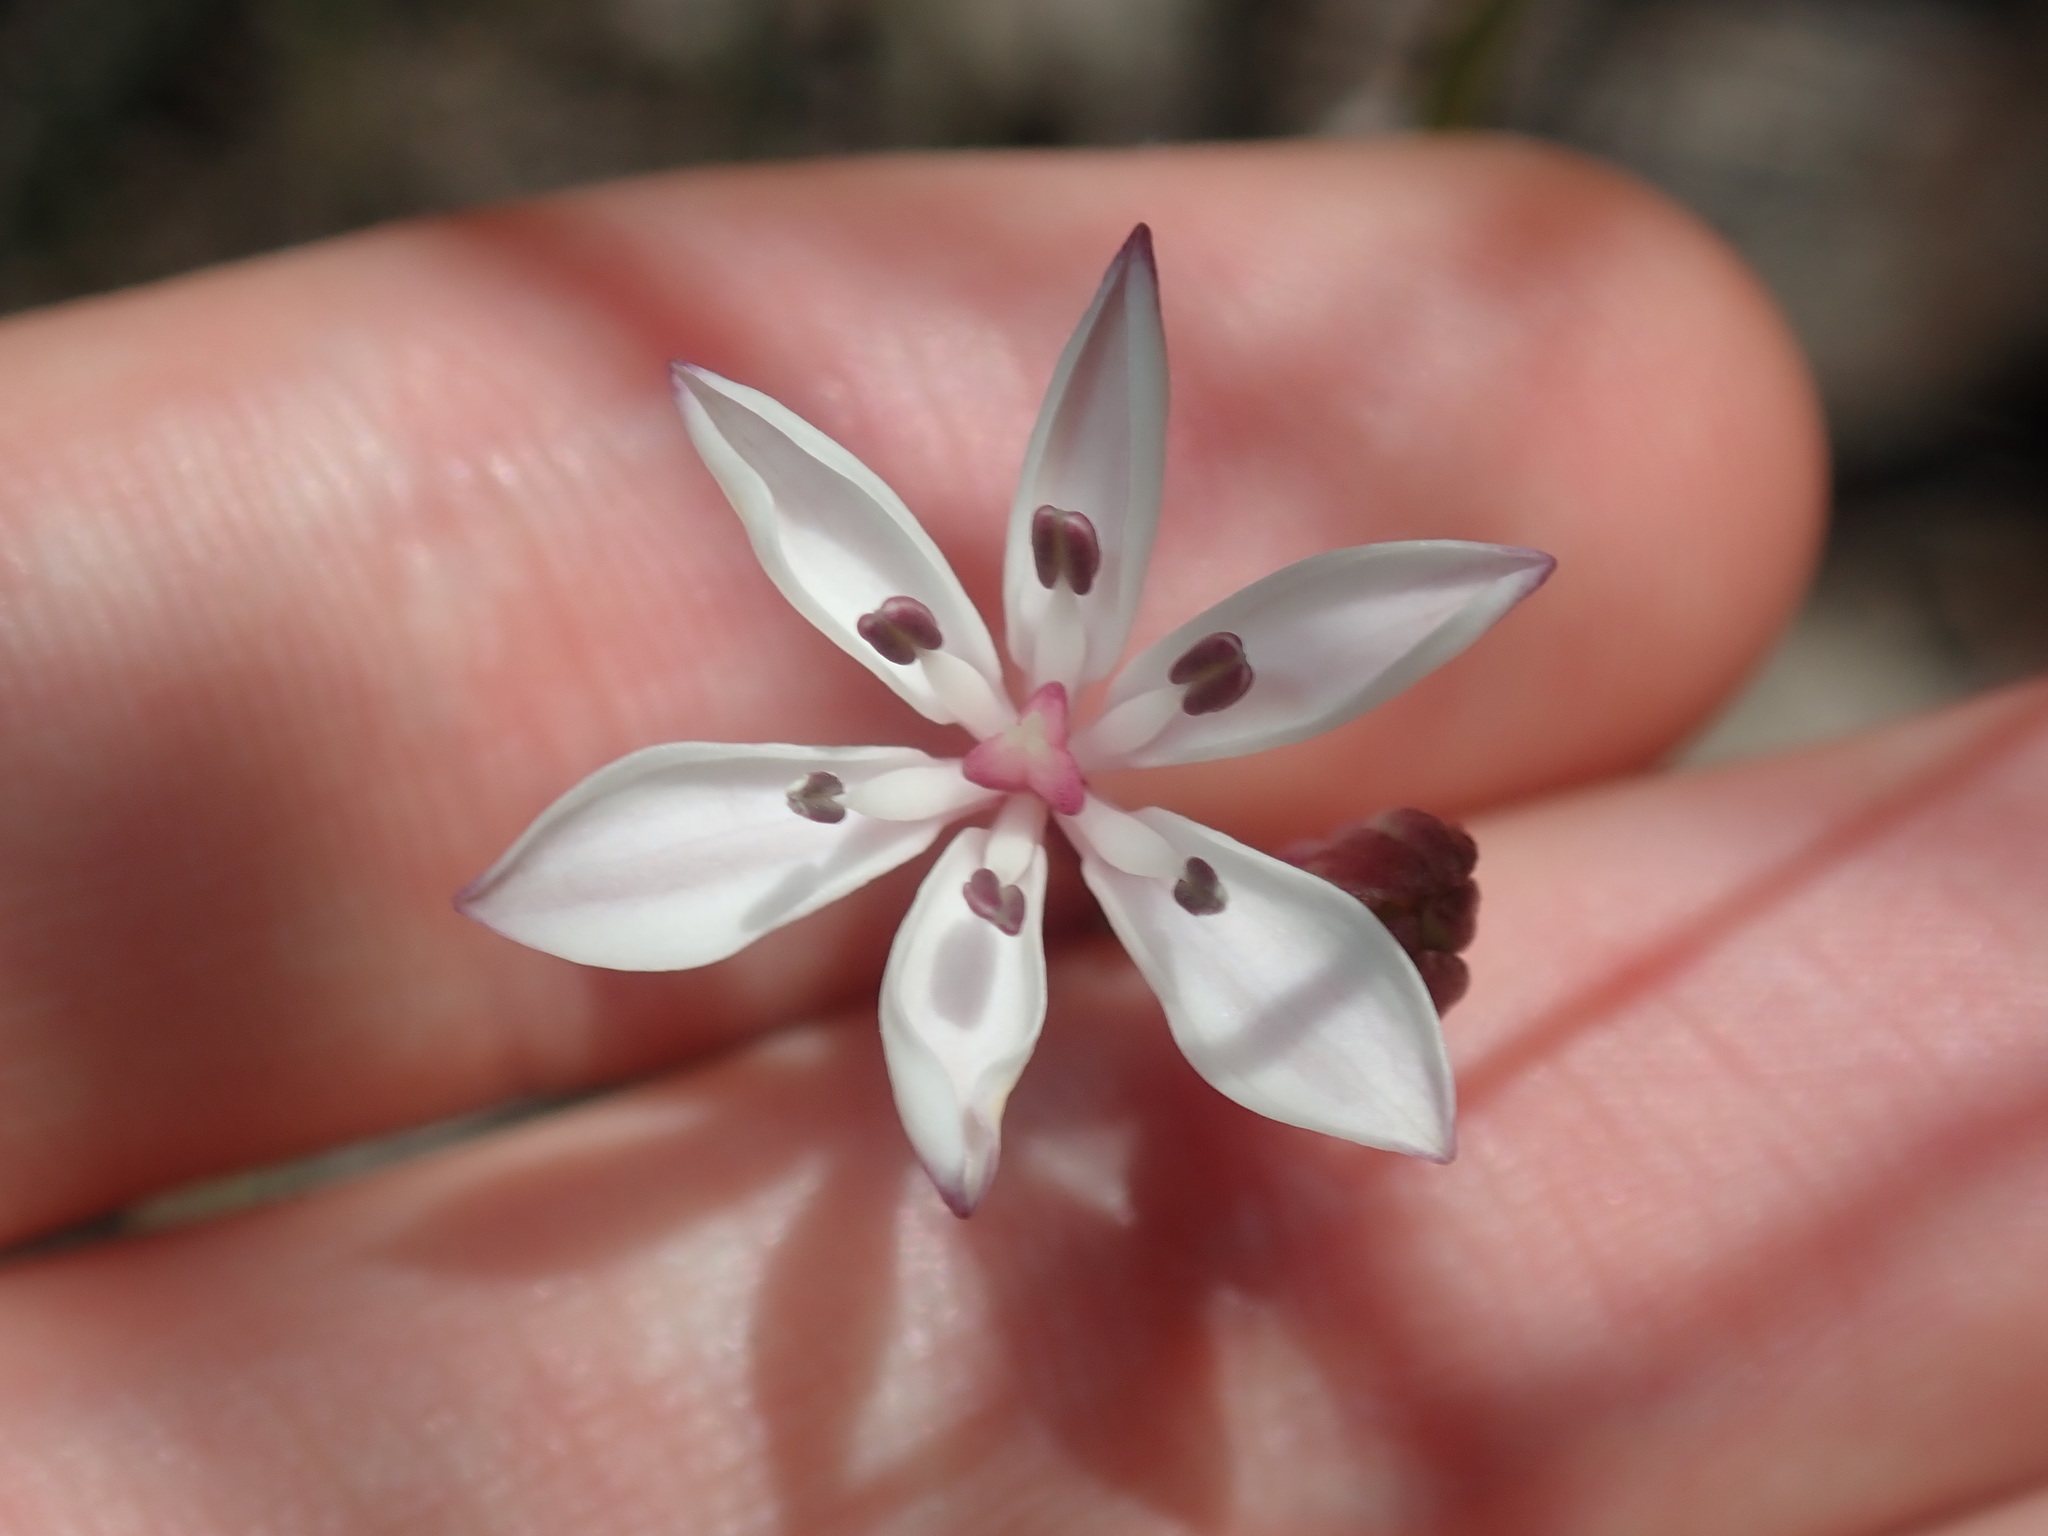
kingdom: Plantae
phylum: Tracheophyta
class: Liliopsida
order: Liliales
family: Colchicaceae
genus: Burchardia
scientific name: Burchardia umbellata
